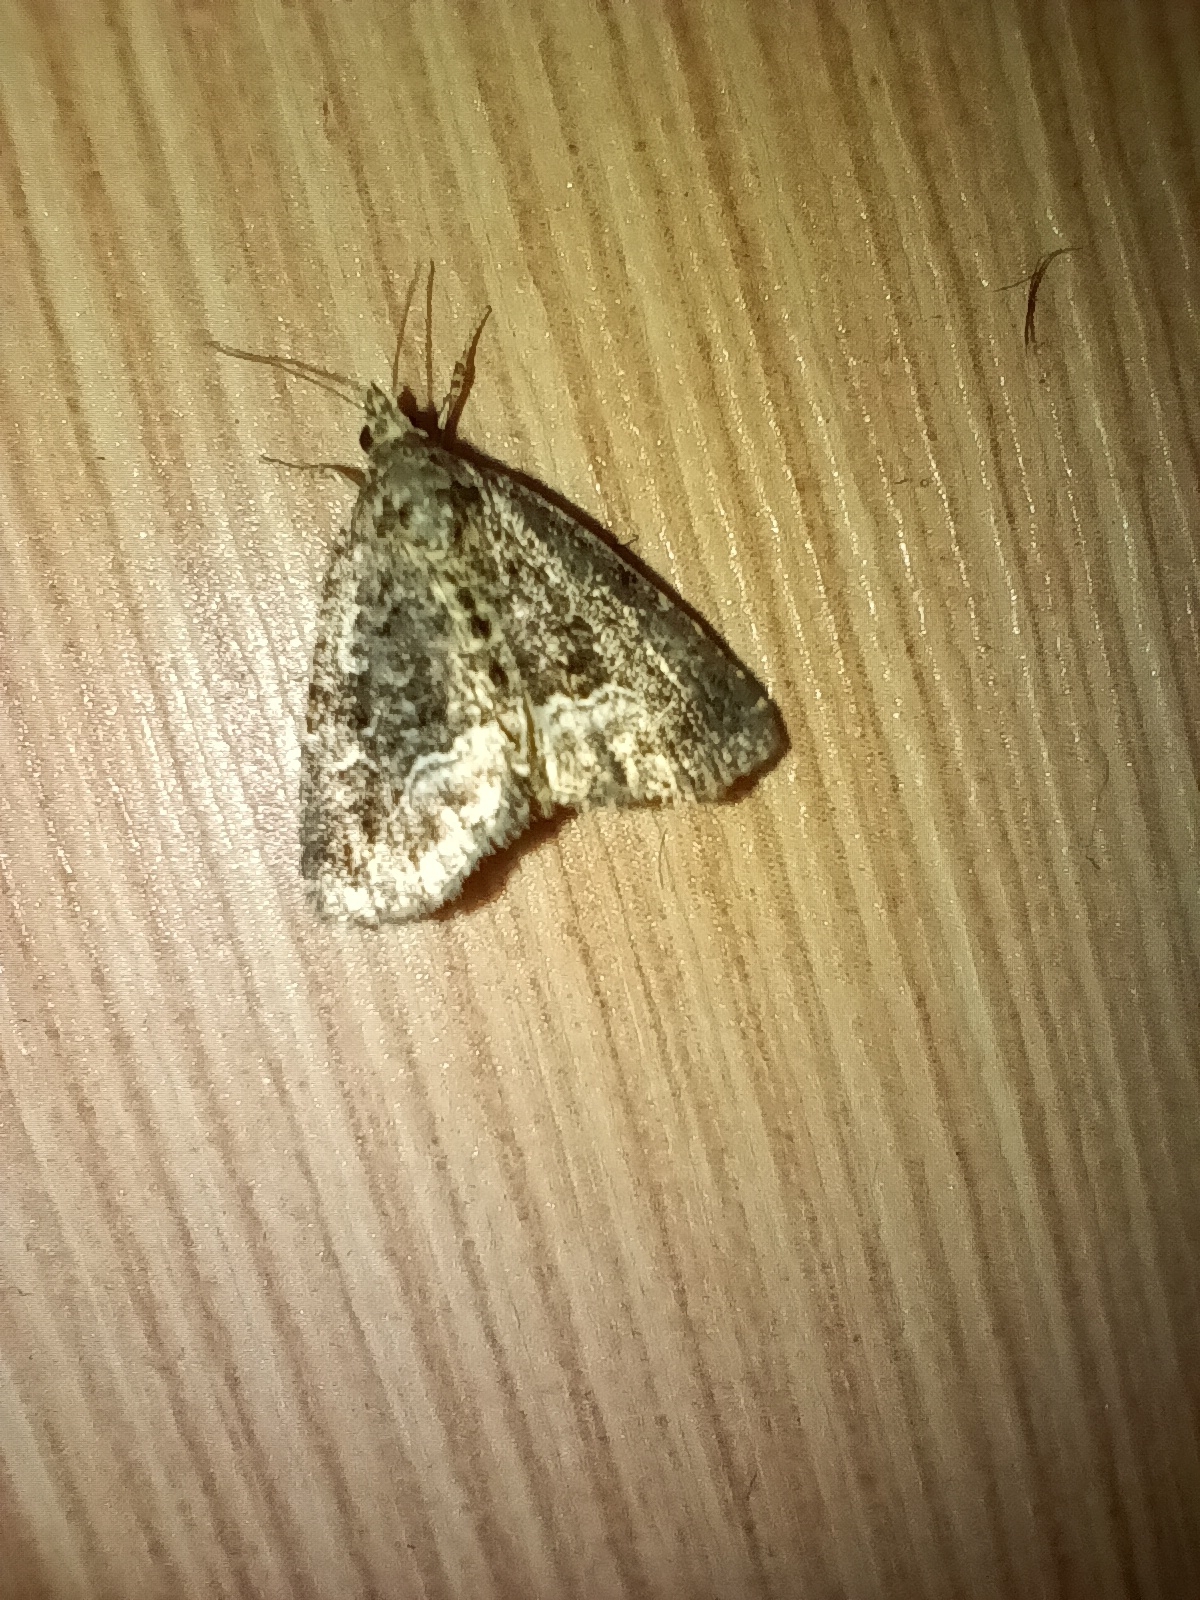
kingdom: Animalia
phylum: Arthropoda
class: Insecta
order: Lepidoptera
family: Noctuidae
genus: Deltote
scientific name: Deltote pygarga
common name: Marbled white spot
